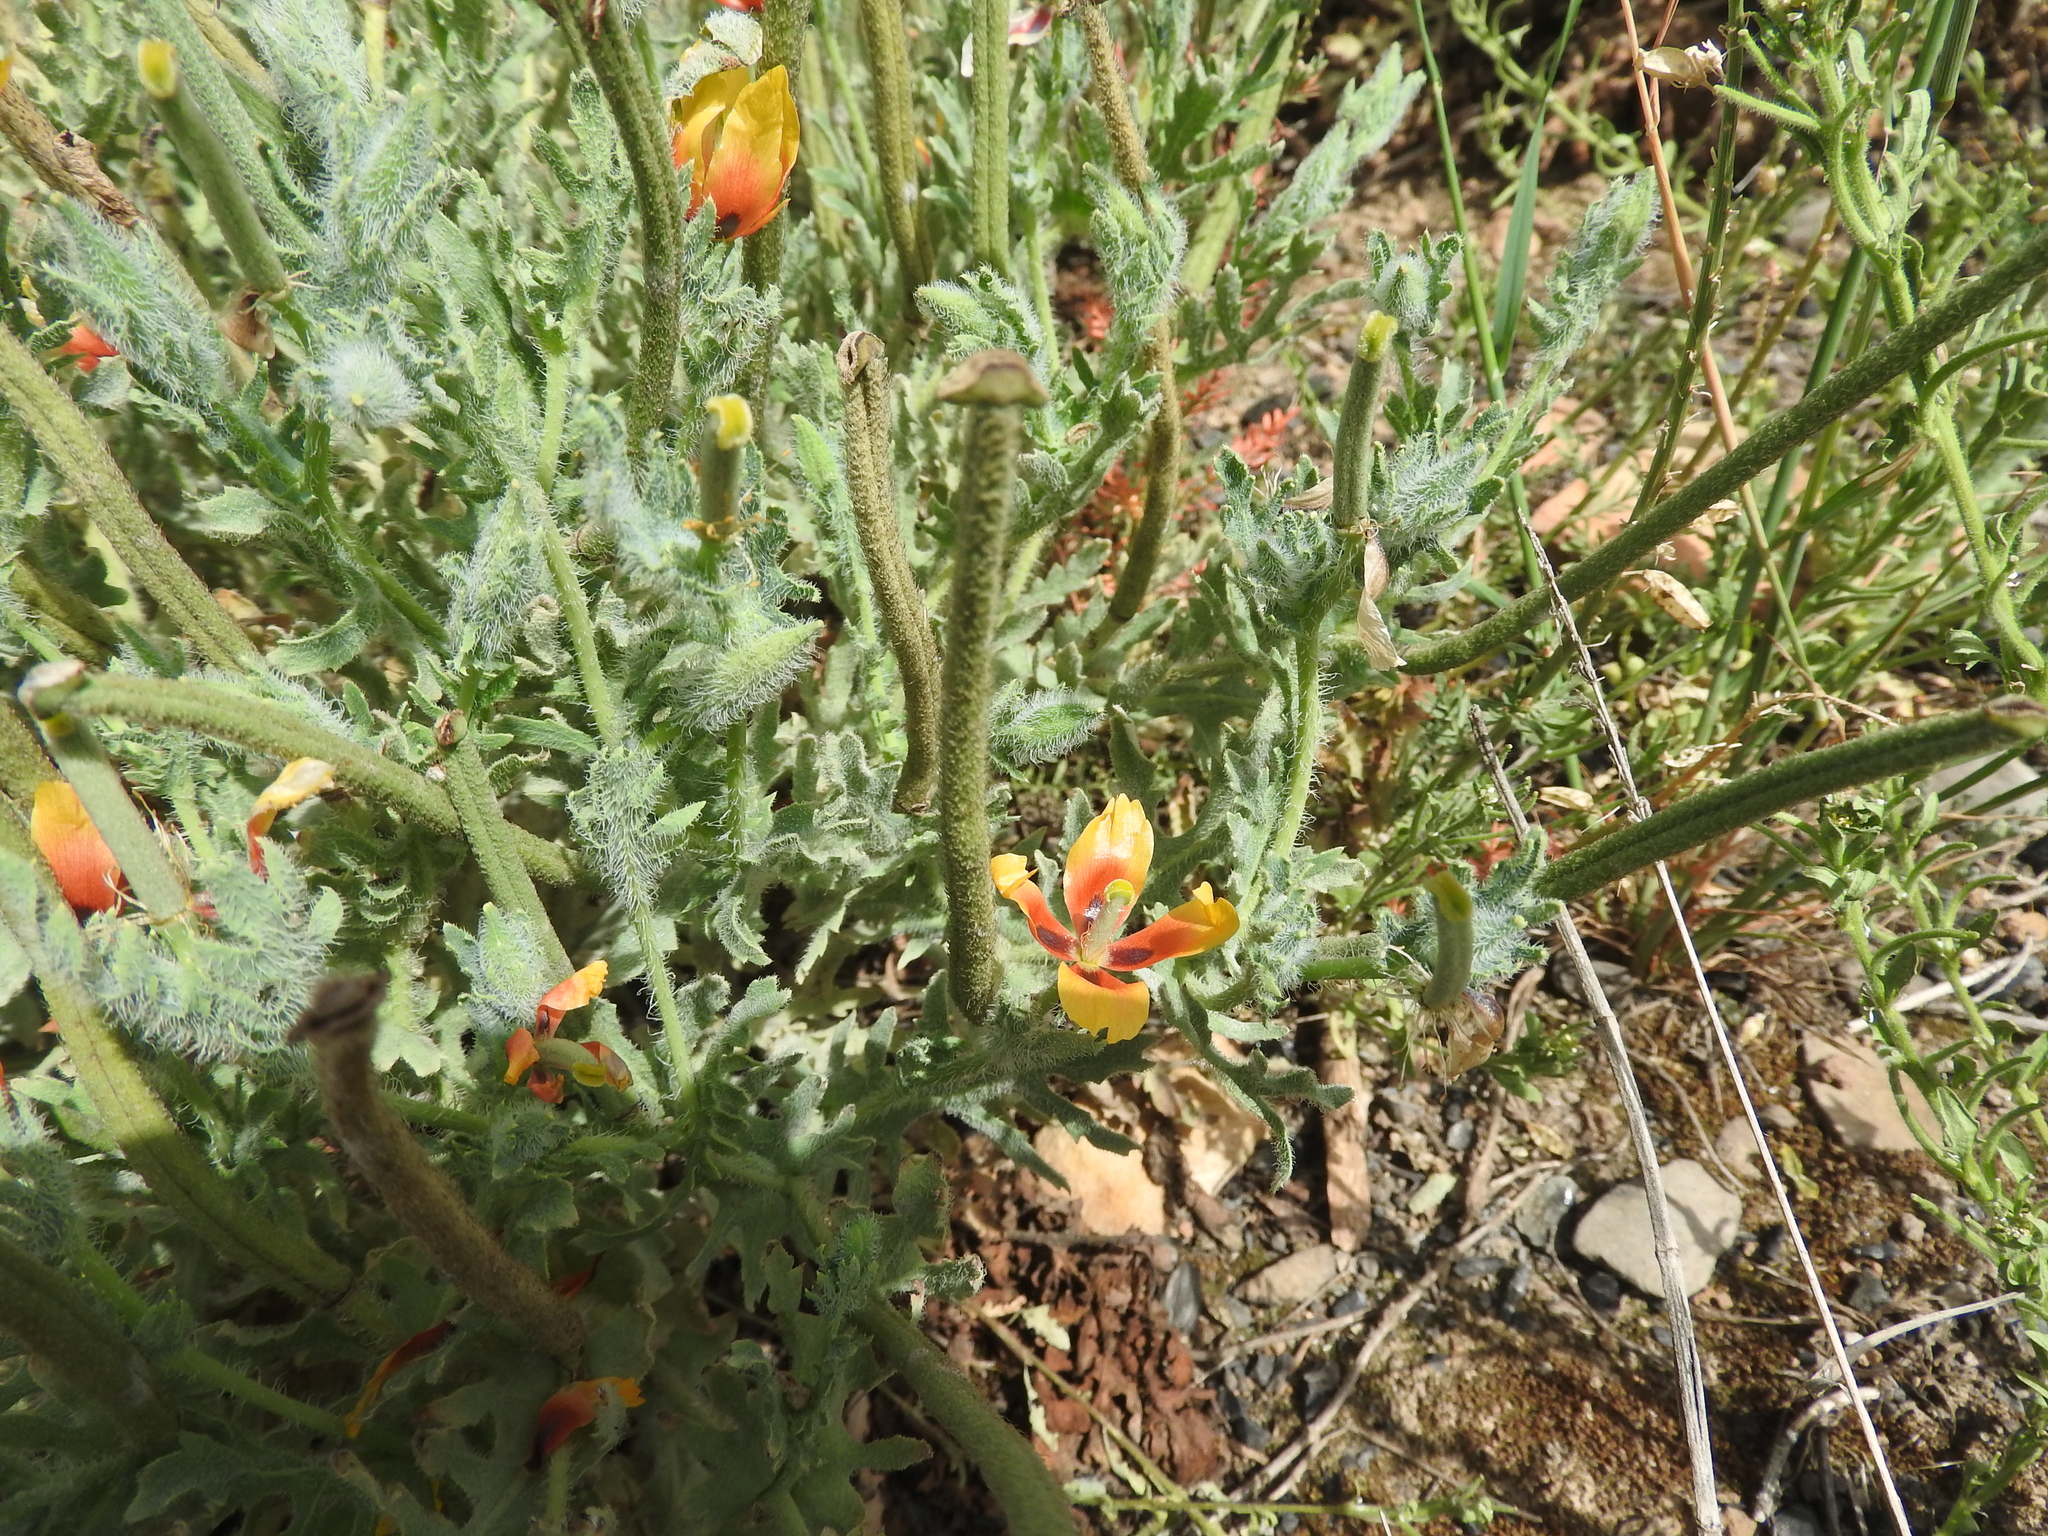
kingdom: Plantae
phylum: Tracheophyta
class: Magnoliopsida
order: Ranunculales
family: Papaveraceae
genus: Glaucium
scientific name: Glaucium corniculatum
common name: Red horned-poppy
